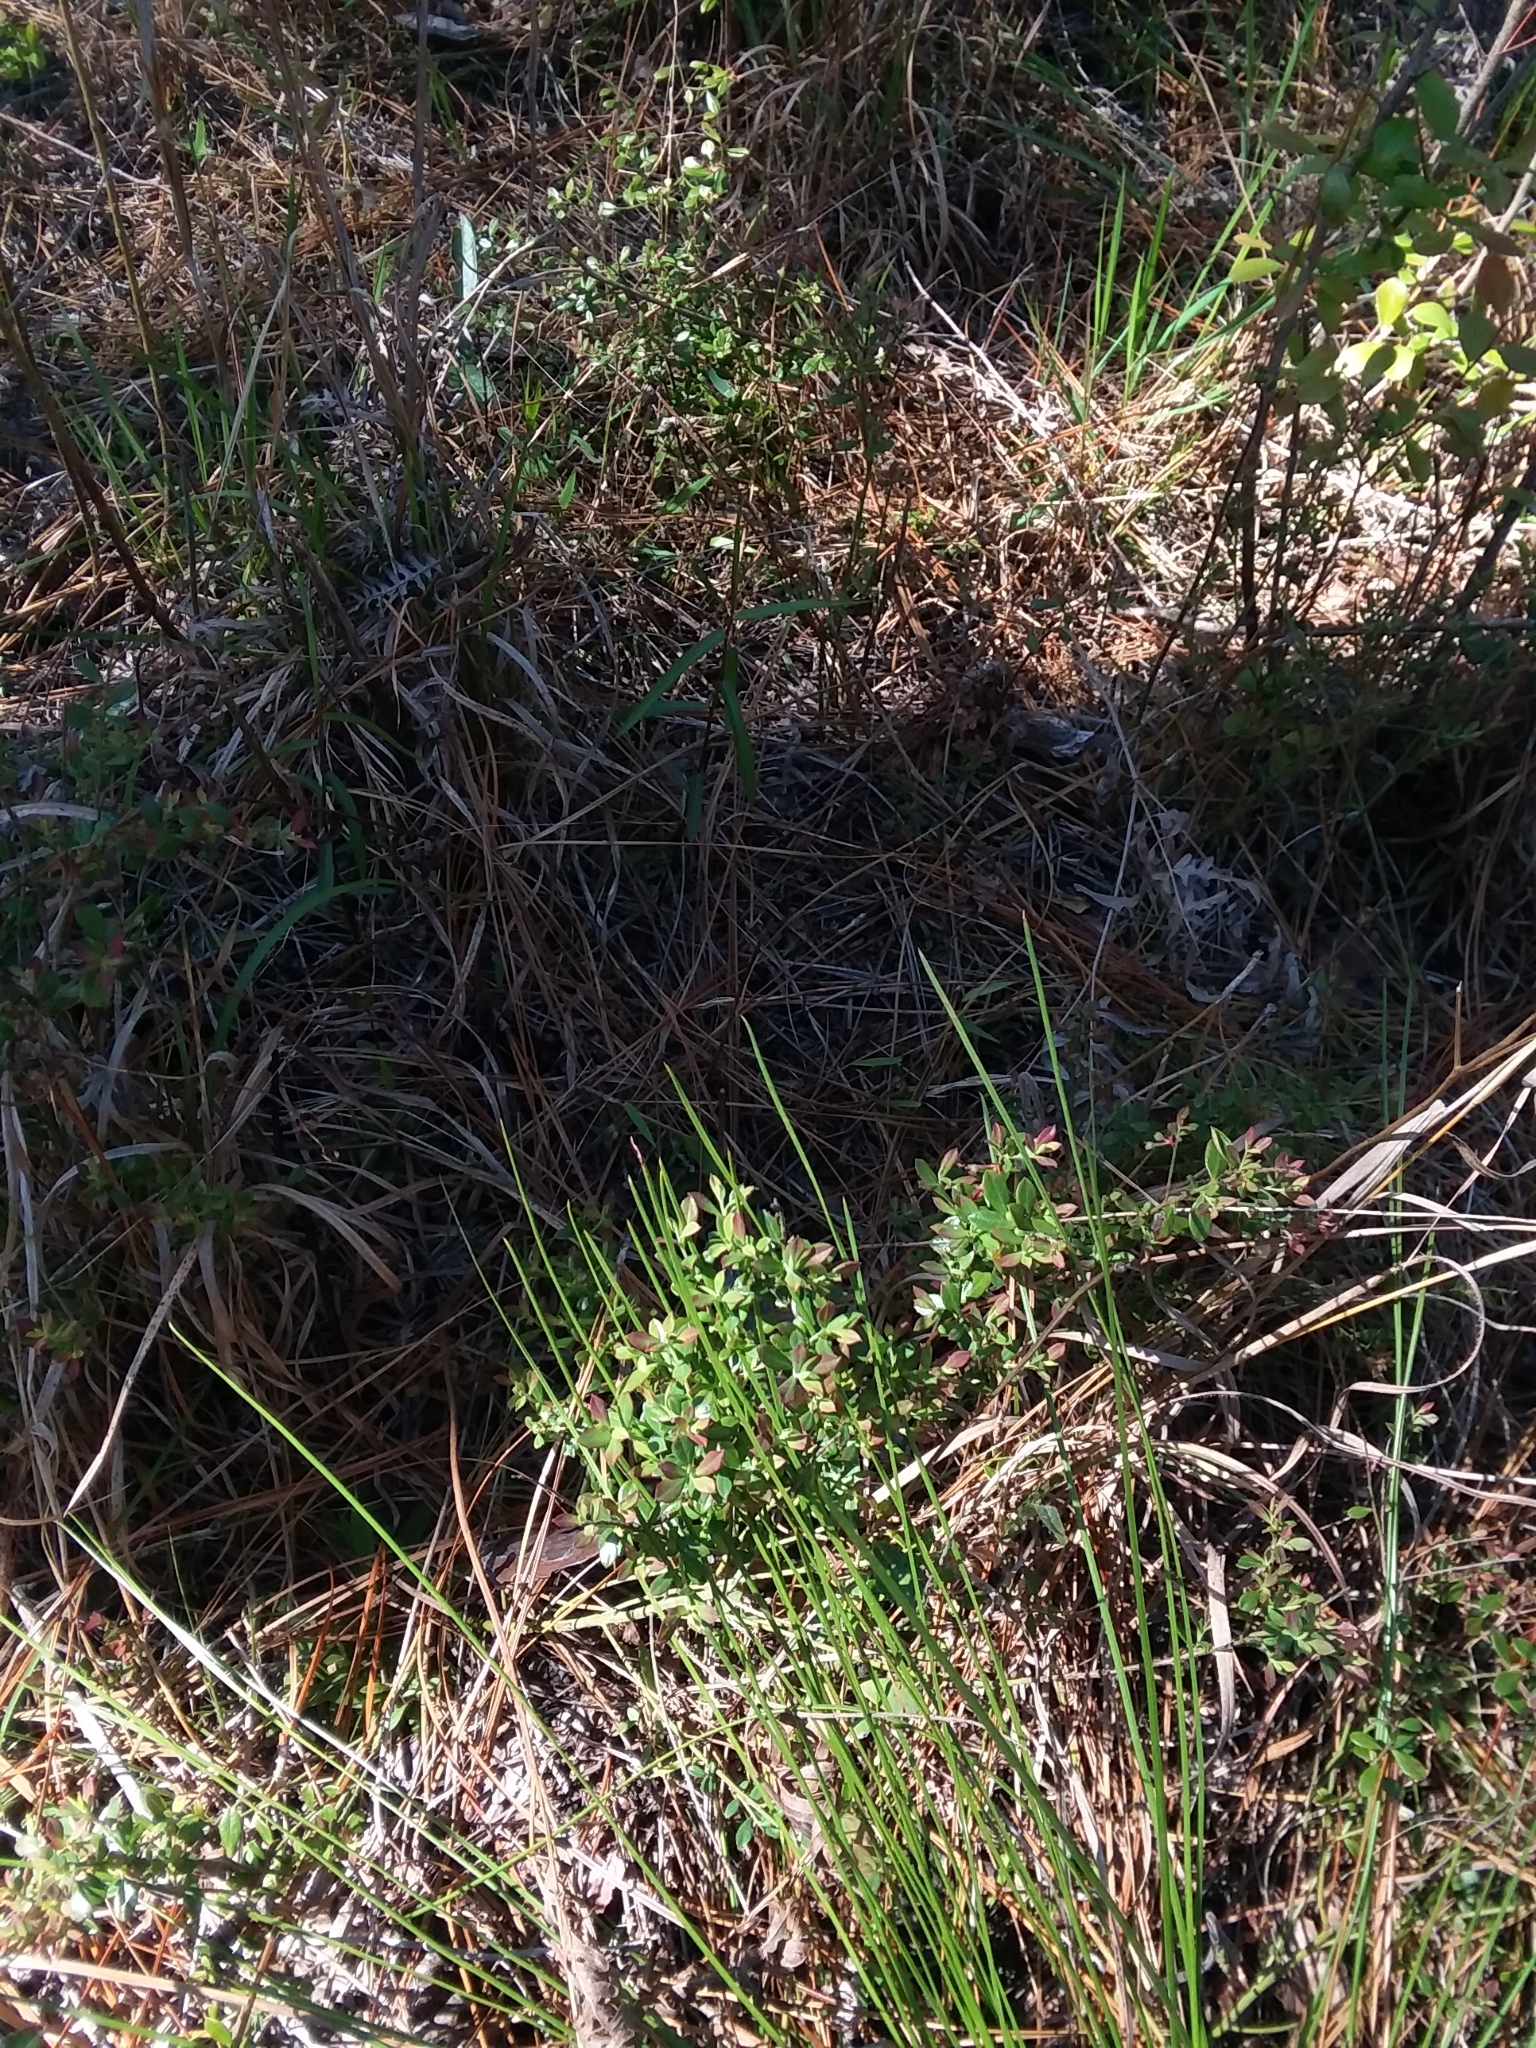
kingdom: Plantae
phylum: Tracheophyta
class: Magnoliopsida
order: Ericales
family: Ericaceae
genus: Vaccinium
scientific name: Vaccinium darrowii
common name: Darrow's blueberry
